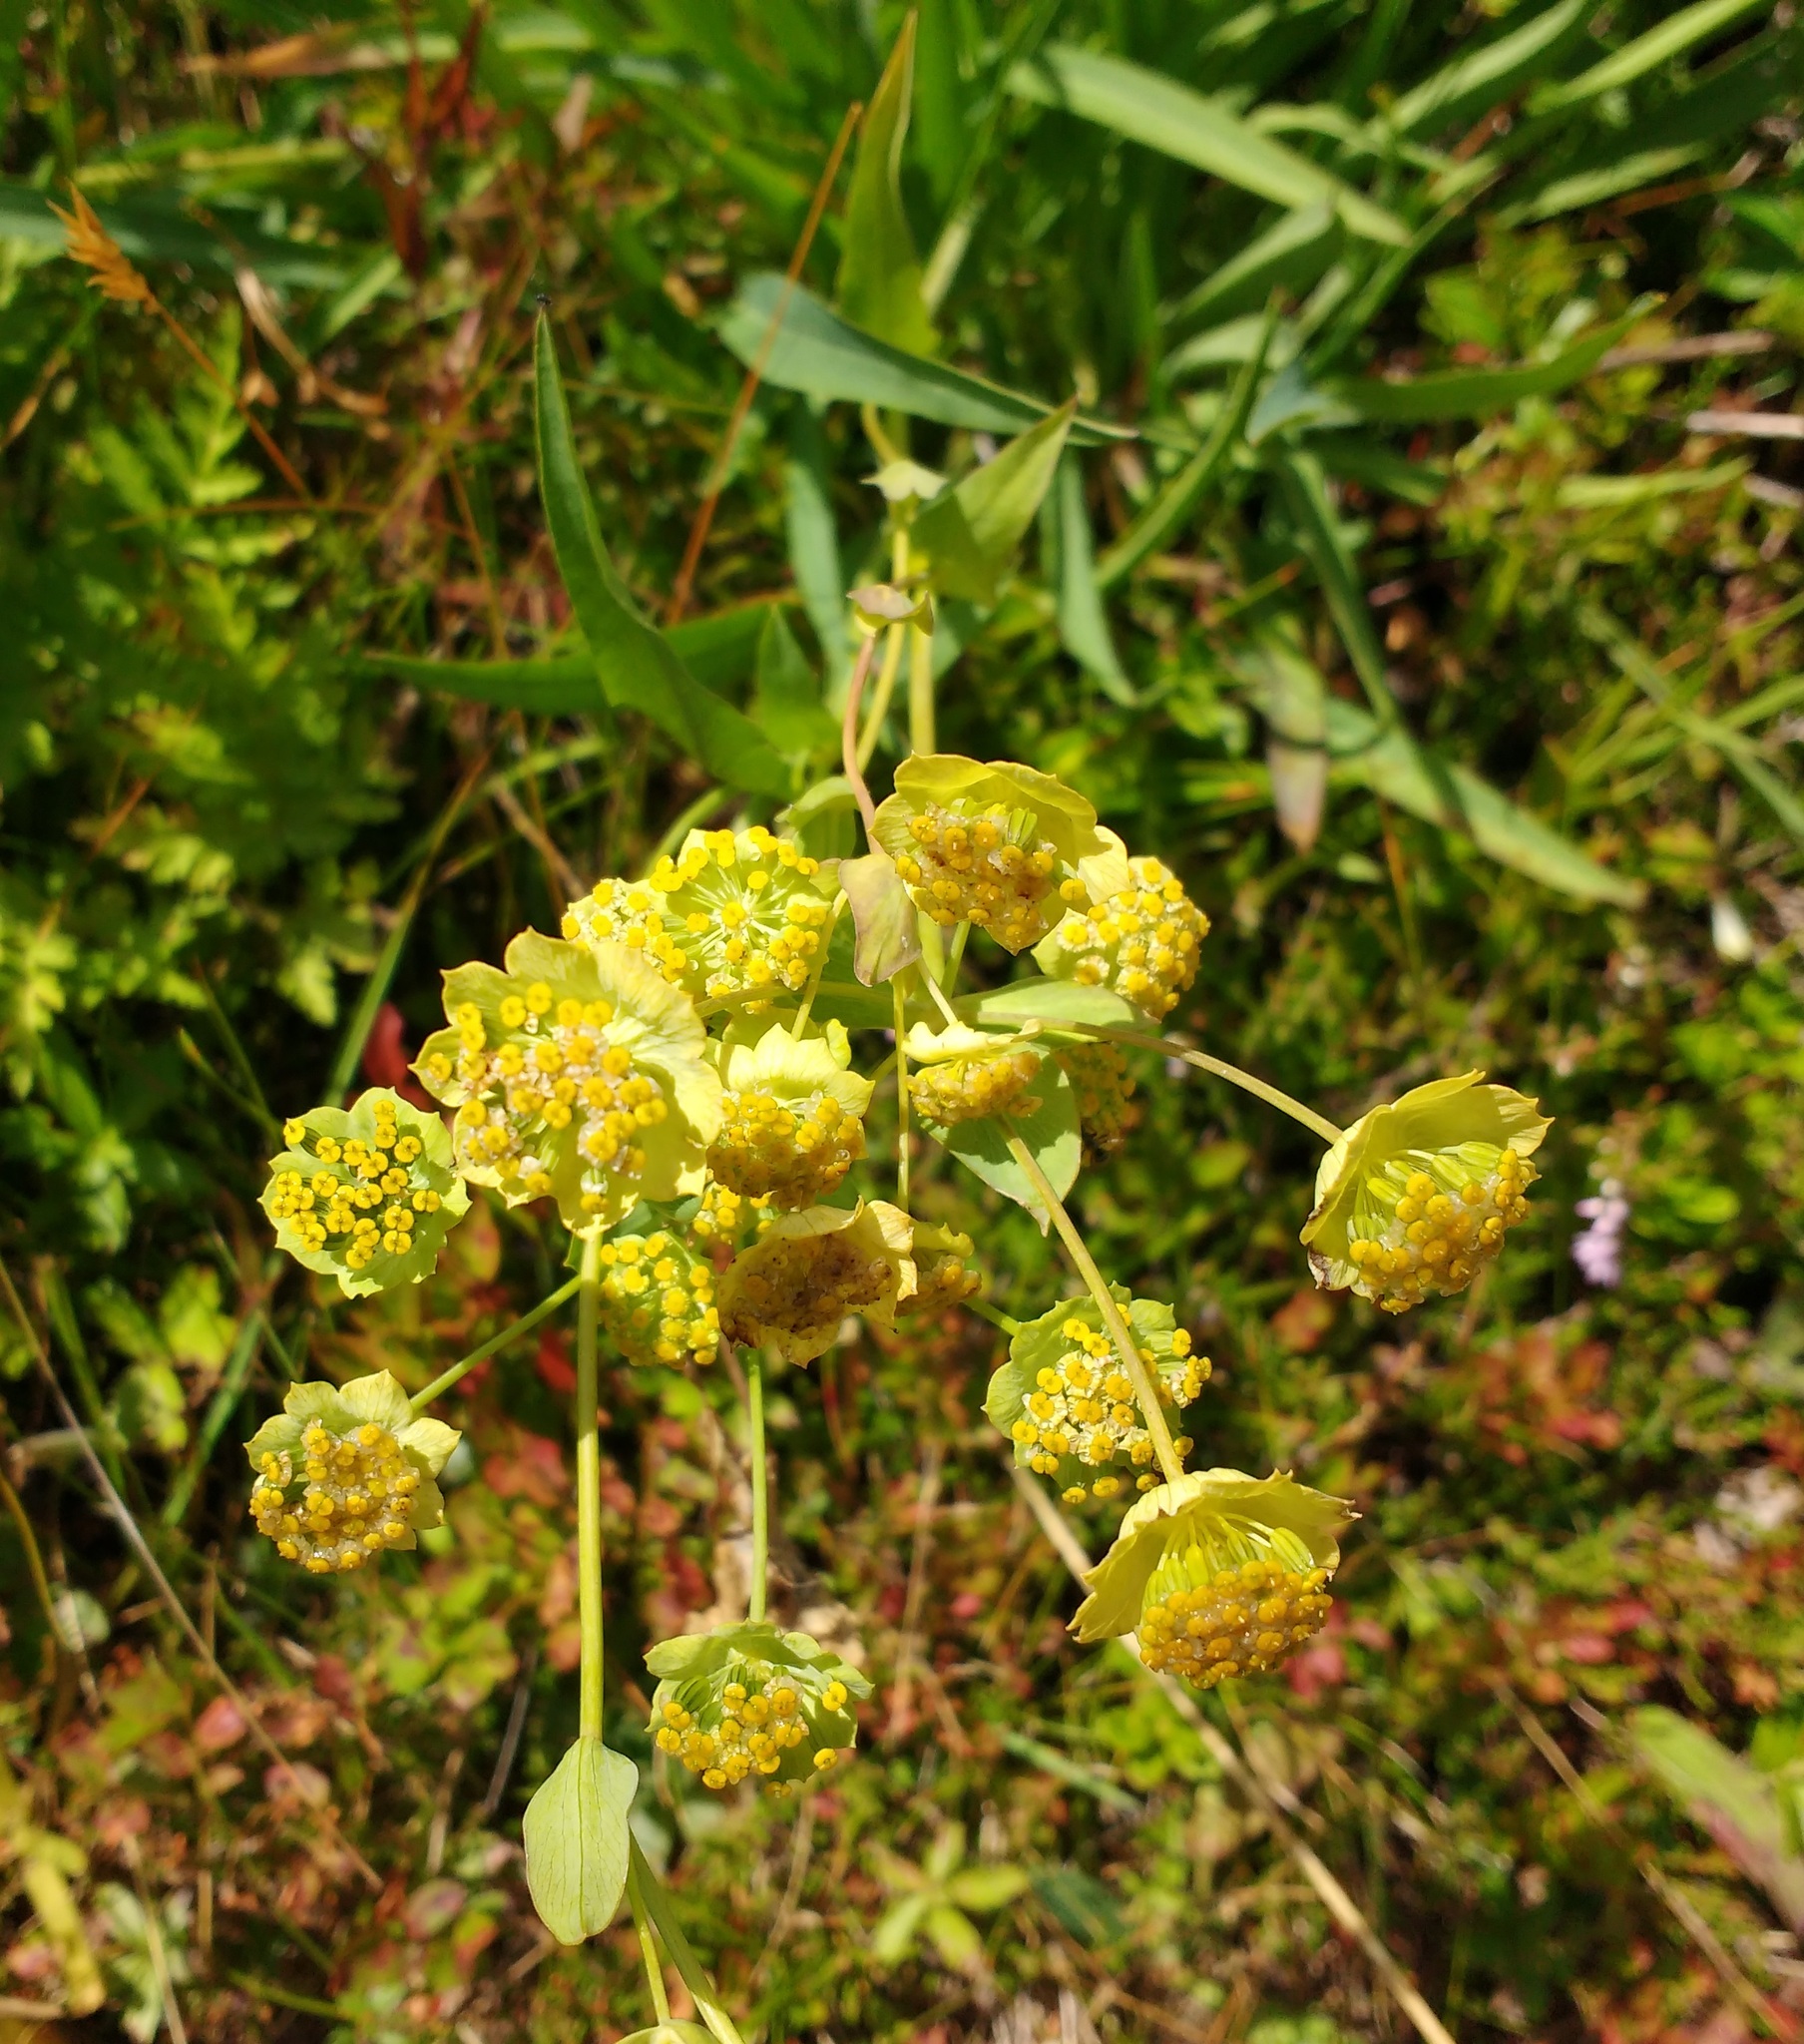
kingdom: Plantae
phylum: Tracheophyta
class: Magnoliopsida
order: Apiales
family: Apiaceae
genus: Bupleurum
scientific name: Bupleurum stellatum
